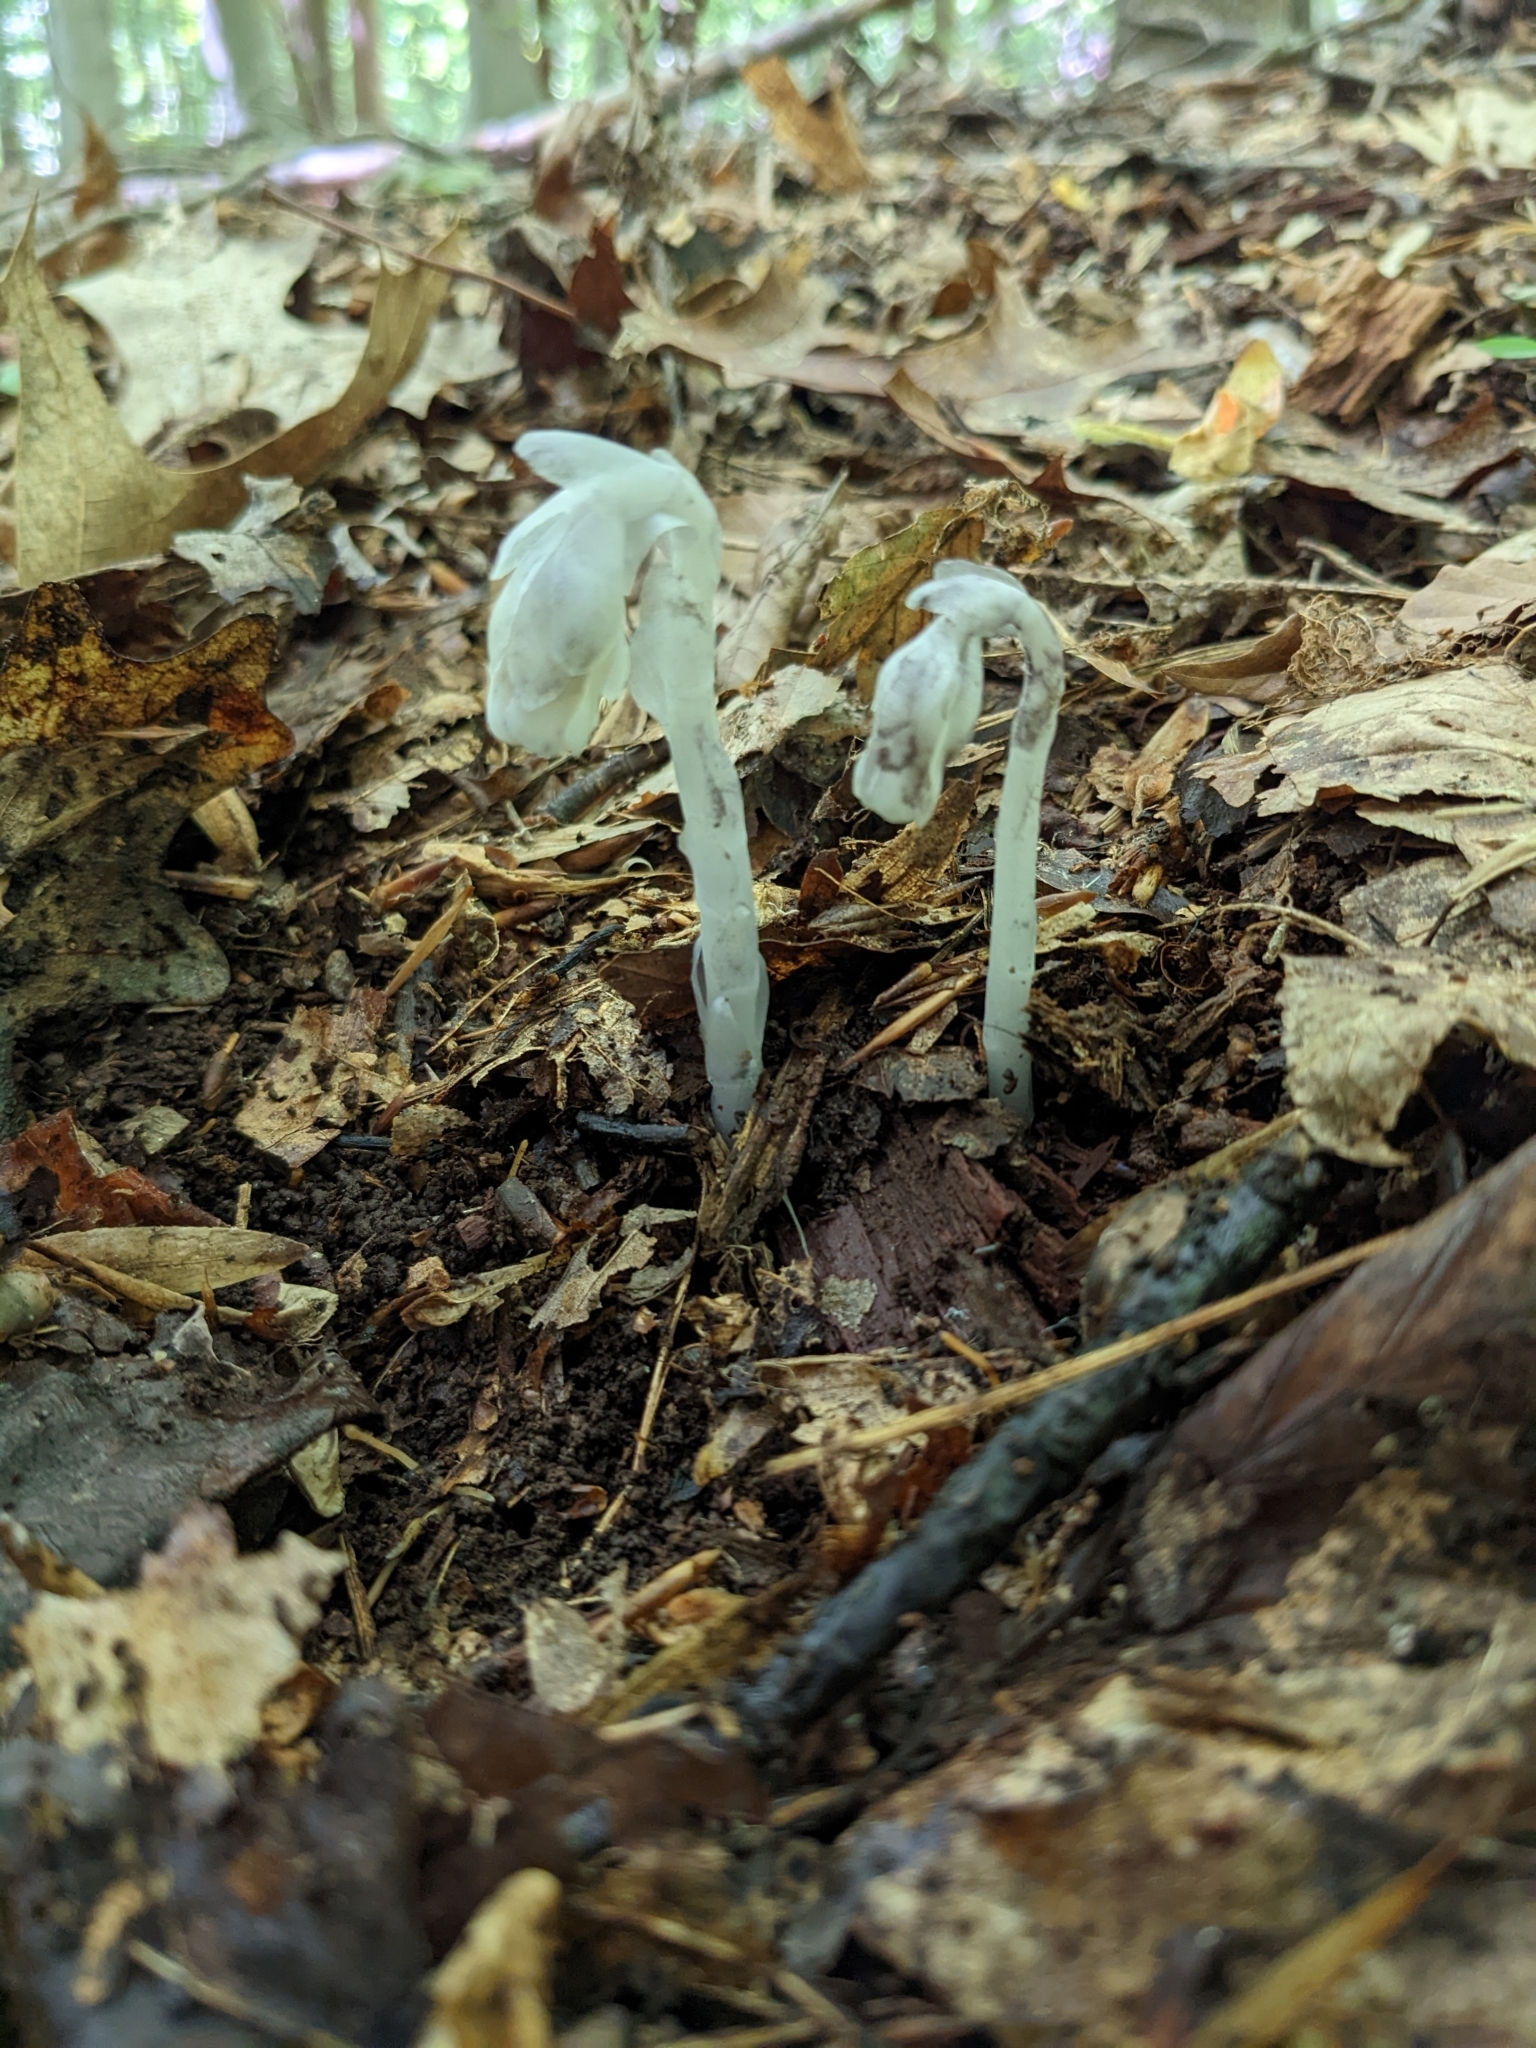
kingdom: Plantae
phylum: Tracheophyta
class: Magnoliopsida
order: Ericales
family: Ericaceae
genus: Monotropa
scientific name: Monotropa uniflora
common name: Convulsion root
